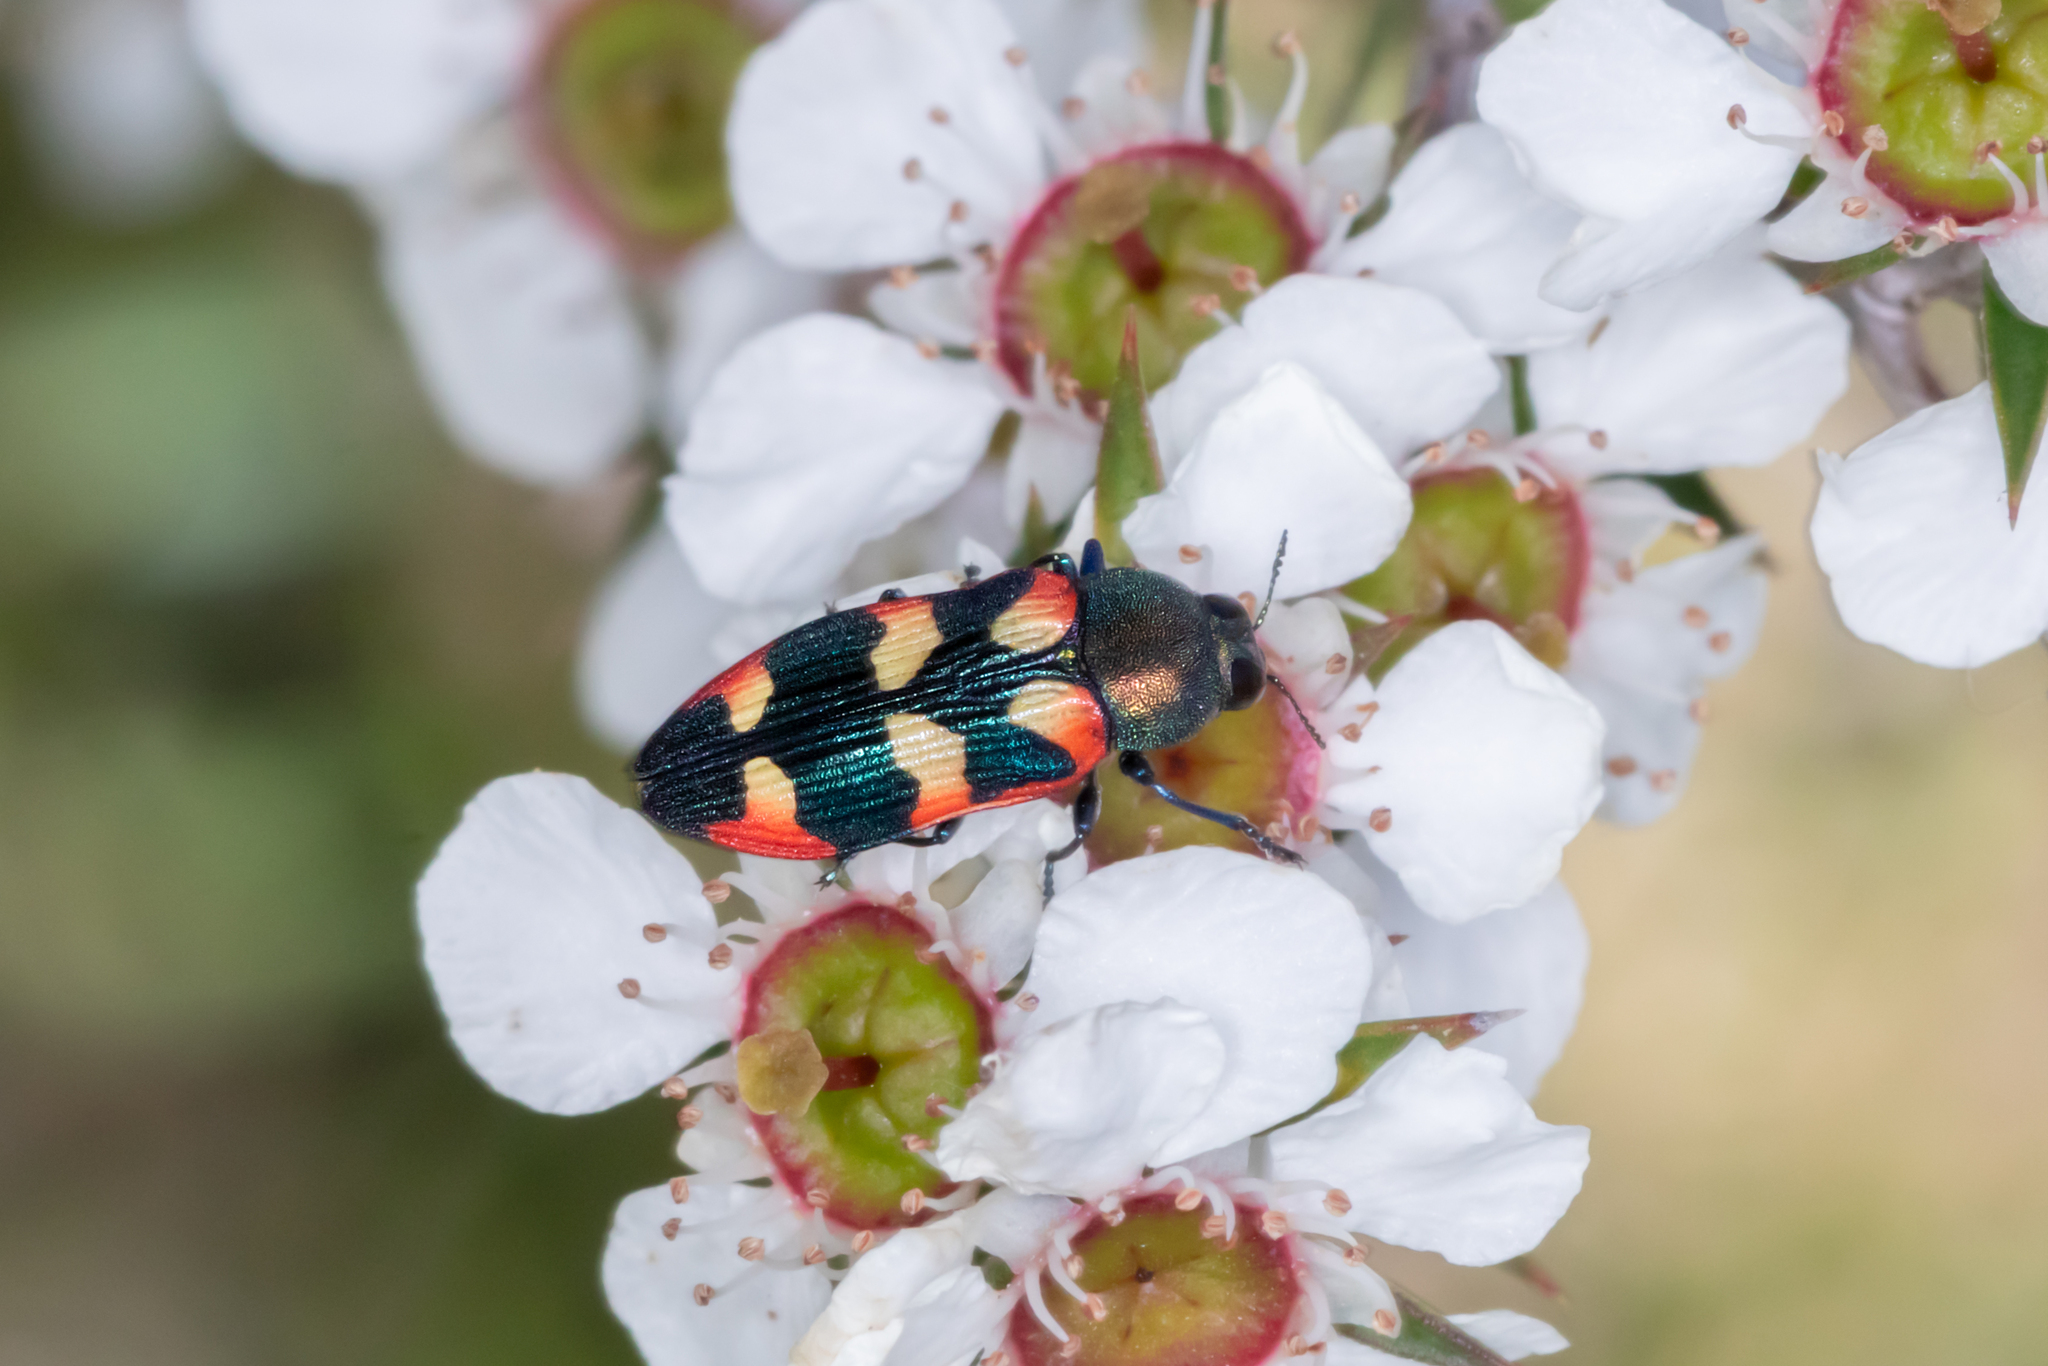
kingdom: Animalia
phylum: Arthropoda
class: Insecta
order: Coleoptera
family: Buprestidae
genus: Castiarina
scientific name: Castiarina sexplagiata
